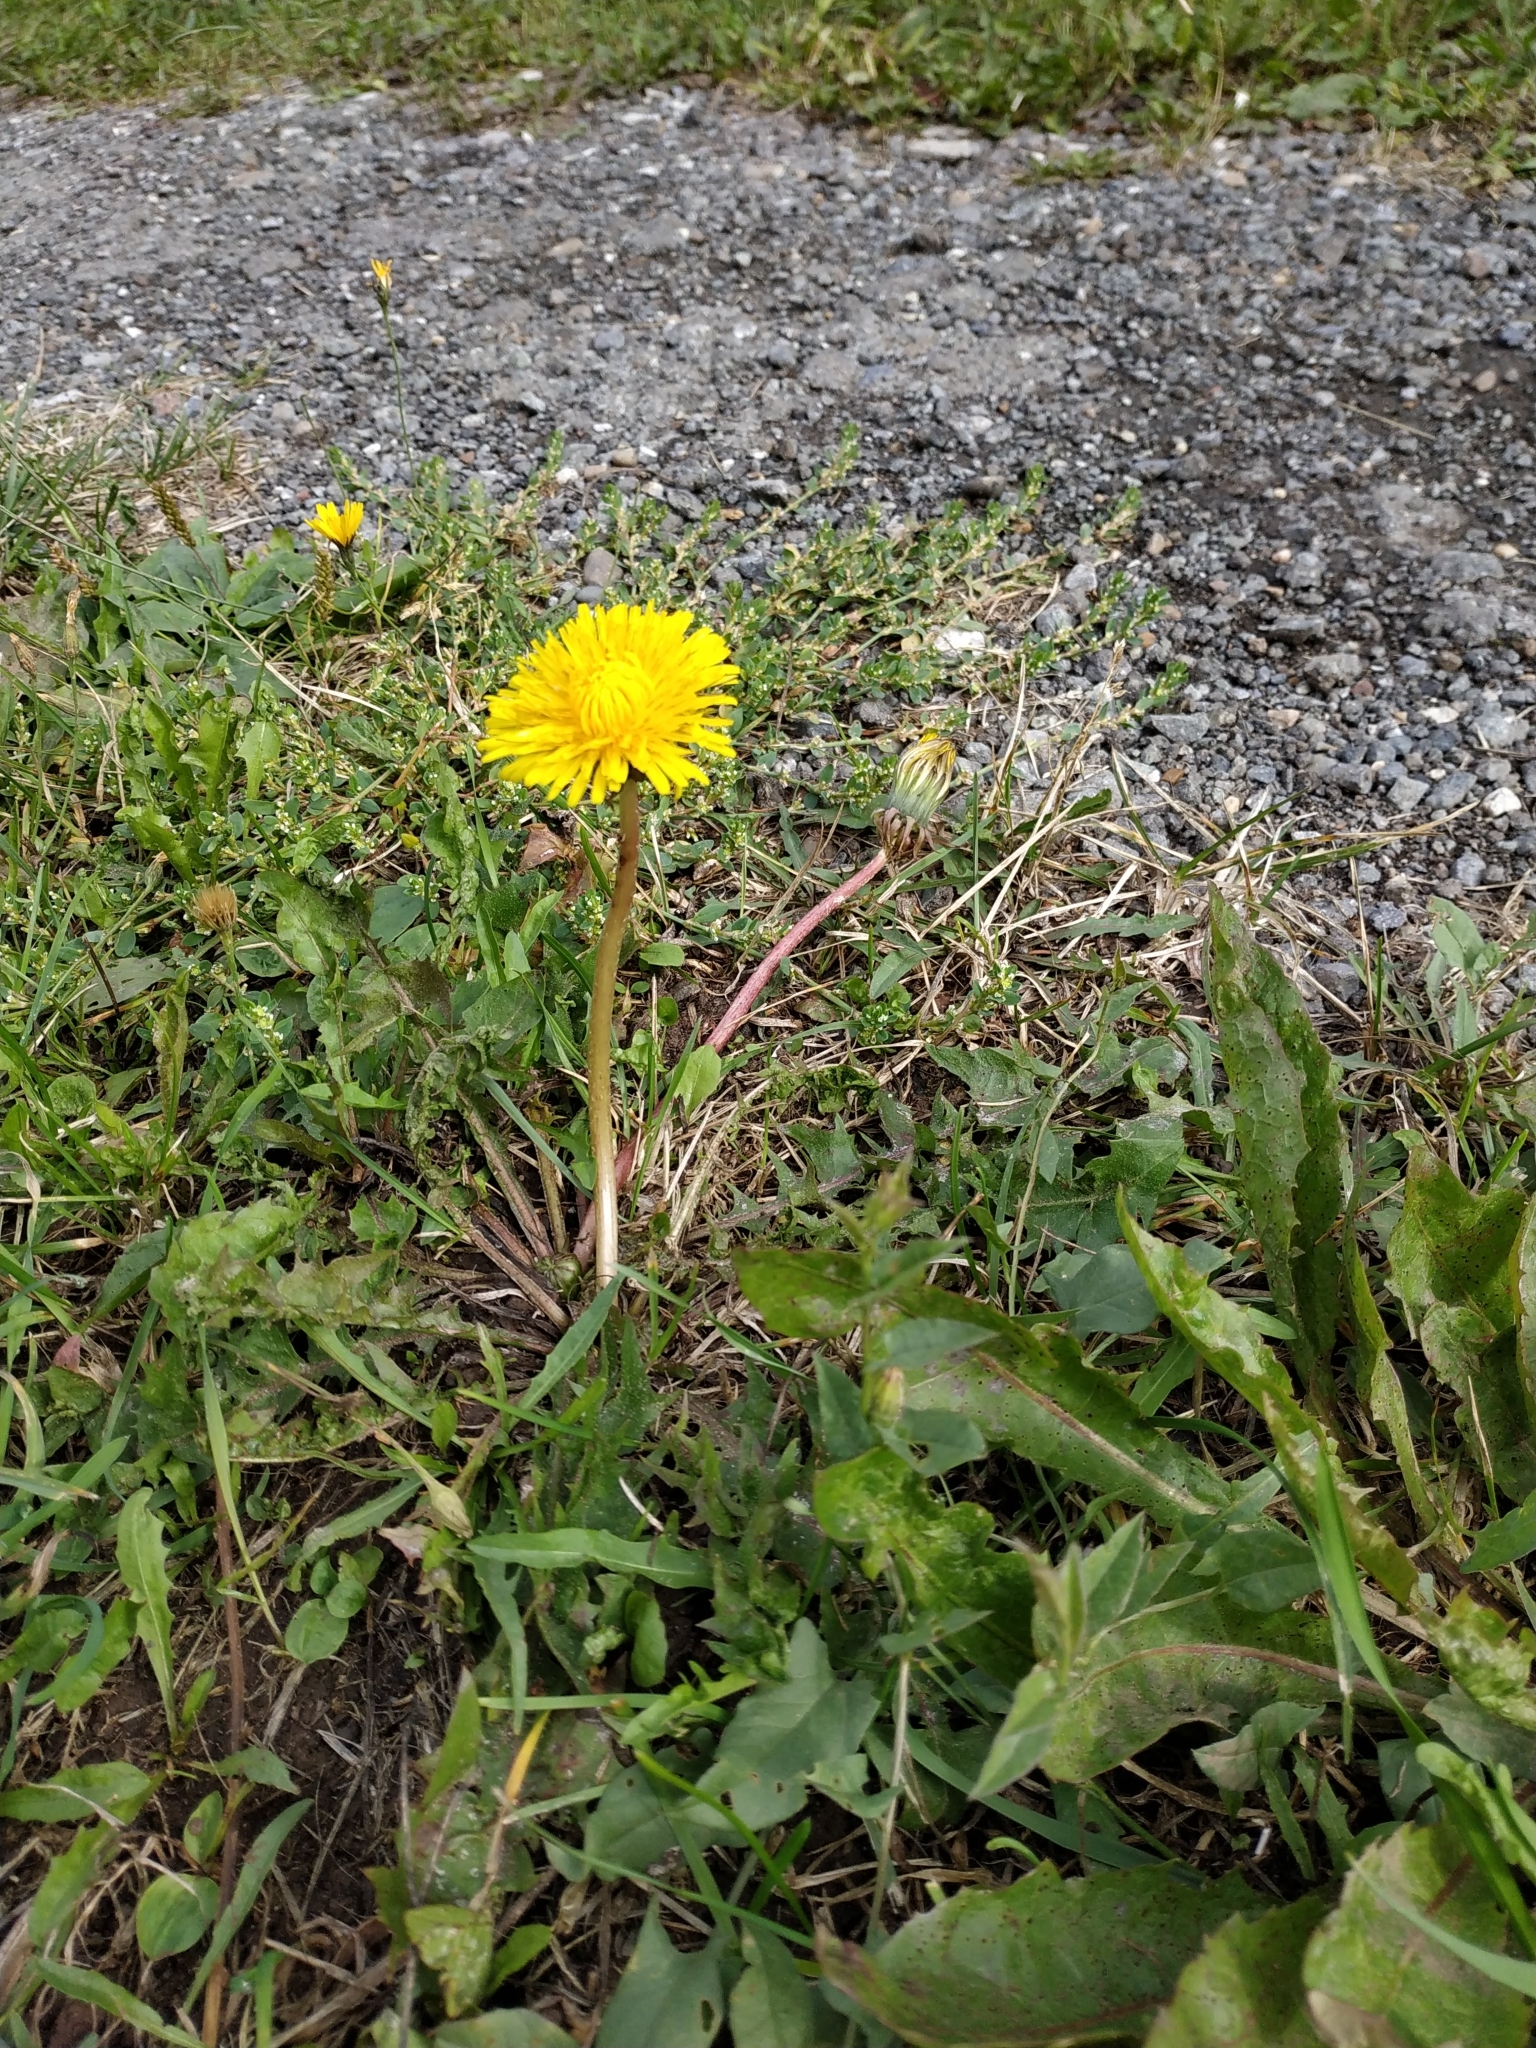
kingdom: Plantae
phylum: Tracheophyta
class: Magnoliopsida
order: Asterales
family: Asteraceae
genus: Taraxacum
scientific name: Taraxacum officinale
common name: Common dandelion
